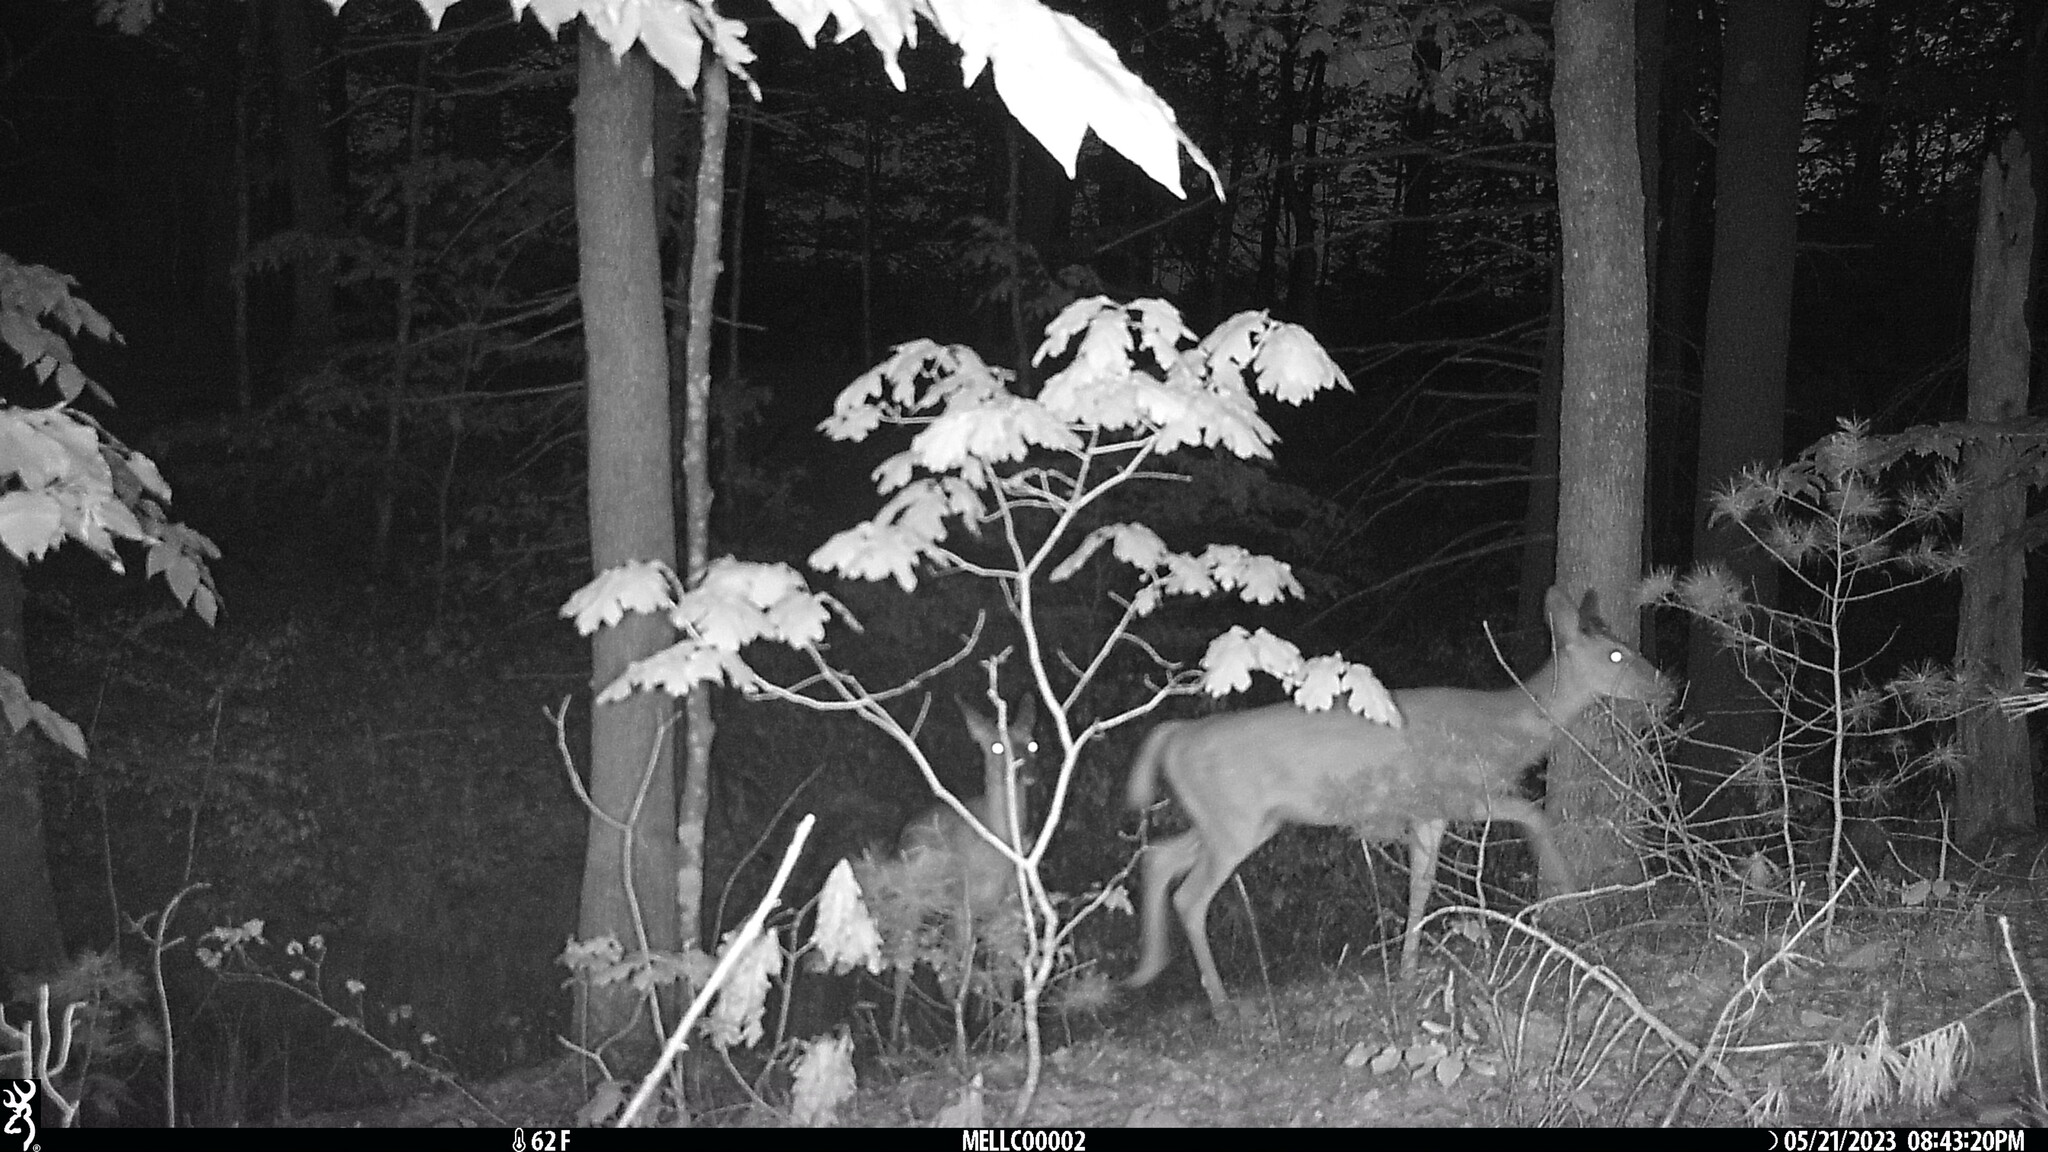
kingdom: Animalia
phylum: Chordata
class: Mammalia
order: Artiodactyla
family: Cervidae
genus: Odocoileus
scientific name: Odocoileus virginianus
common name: White-tailed deer
